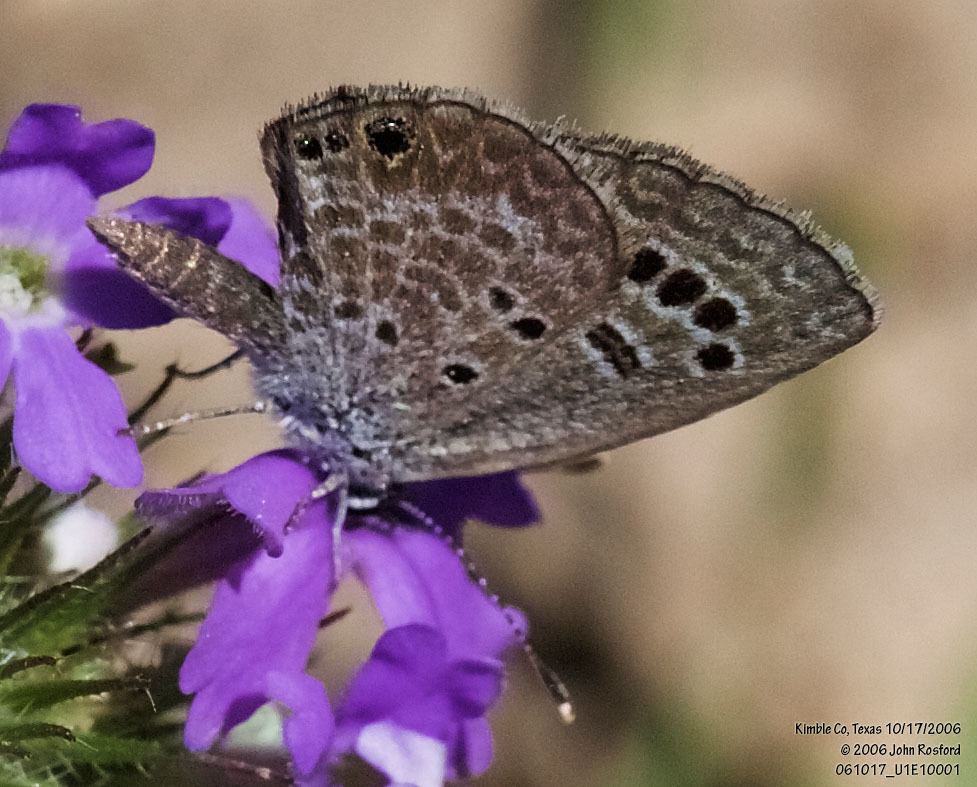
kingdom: Animalia
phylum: Arthropoda
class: Insecta
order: Lepidoptera
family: Lycaenidae
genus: Echinargus
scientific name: Echinargus isola
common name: Reakirt's blue
